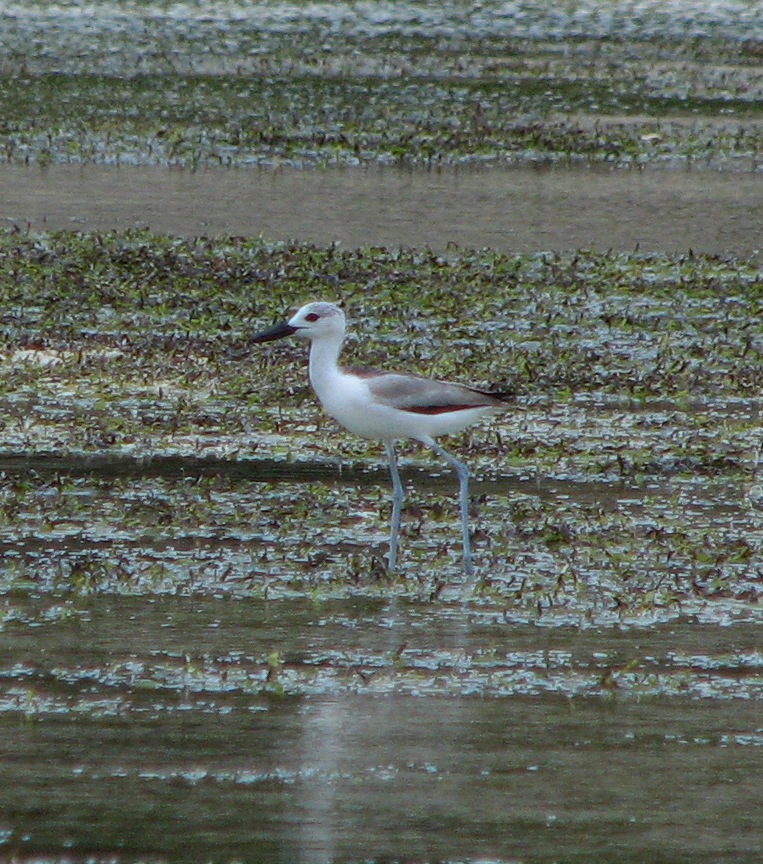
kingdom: Animalia
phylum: Chordata
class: Aves
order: Charadriiformes
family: Dromadidae
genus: Dromas
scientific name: Dromas ardeola
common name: Crab-plover
